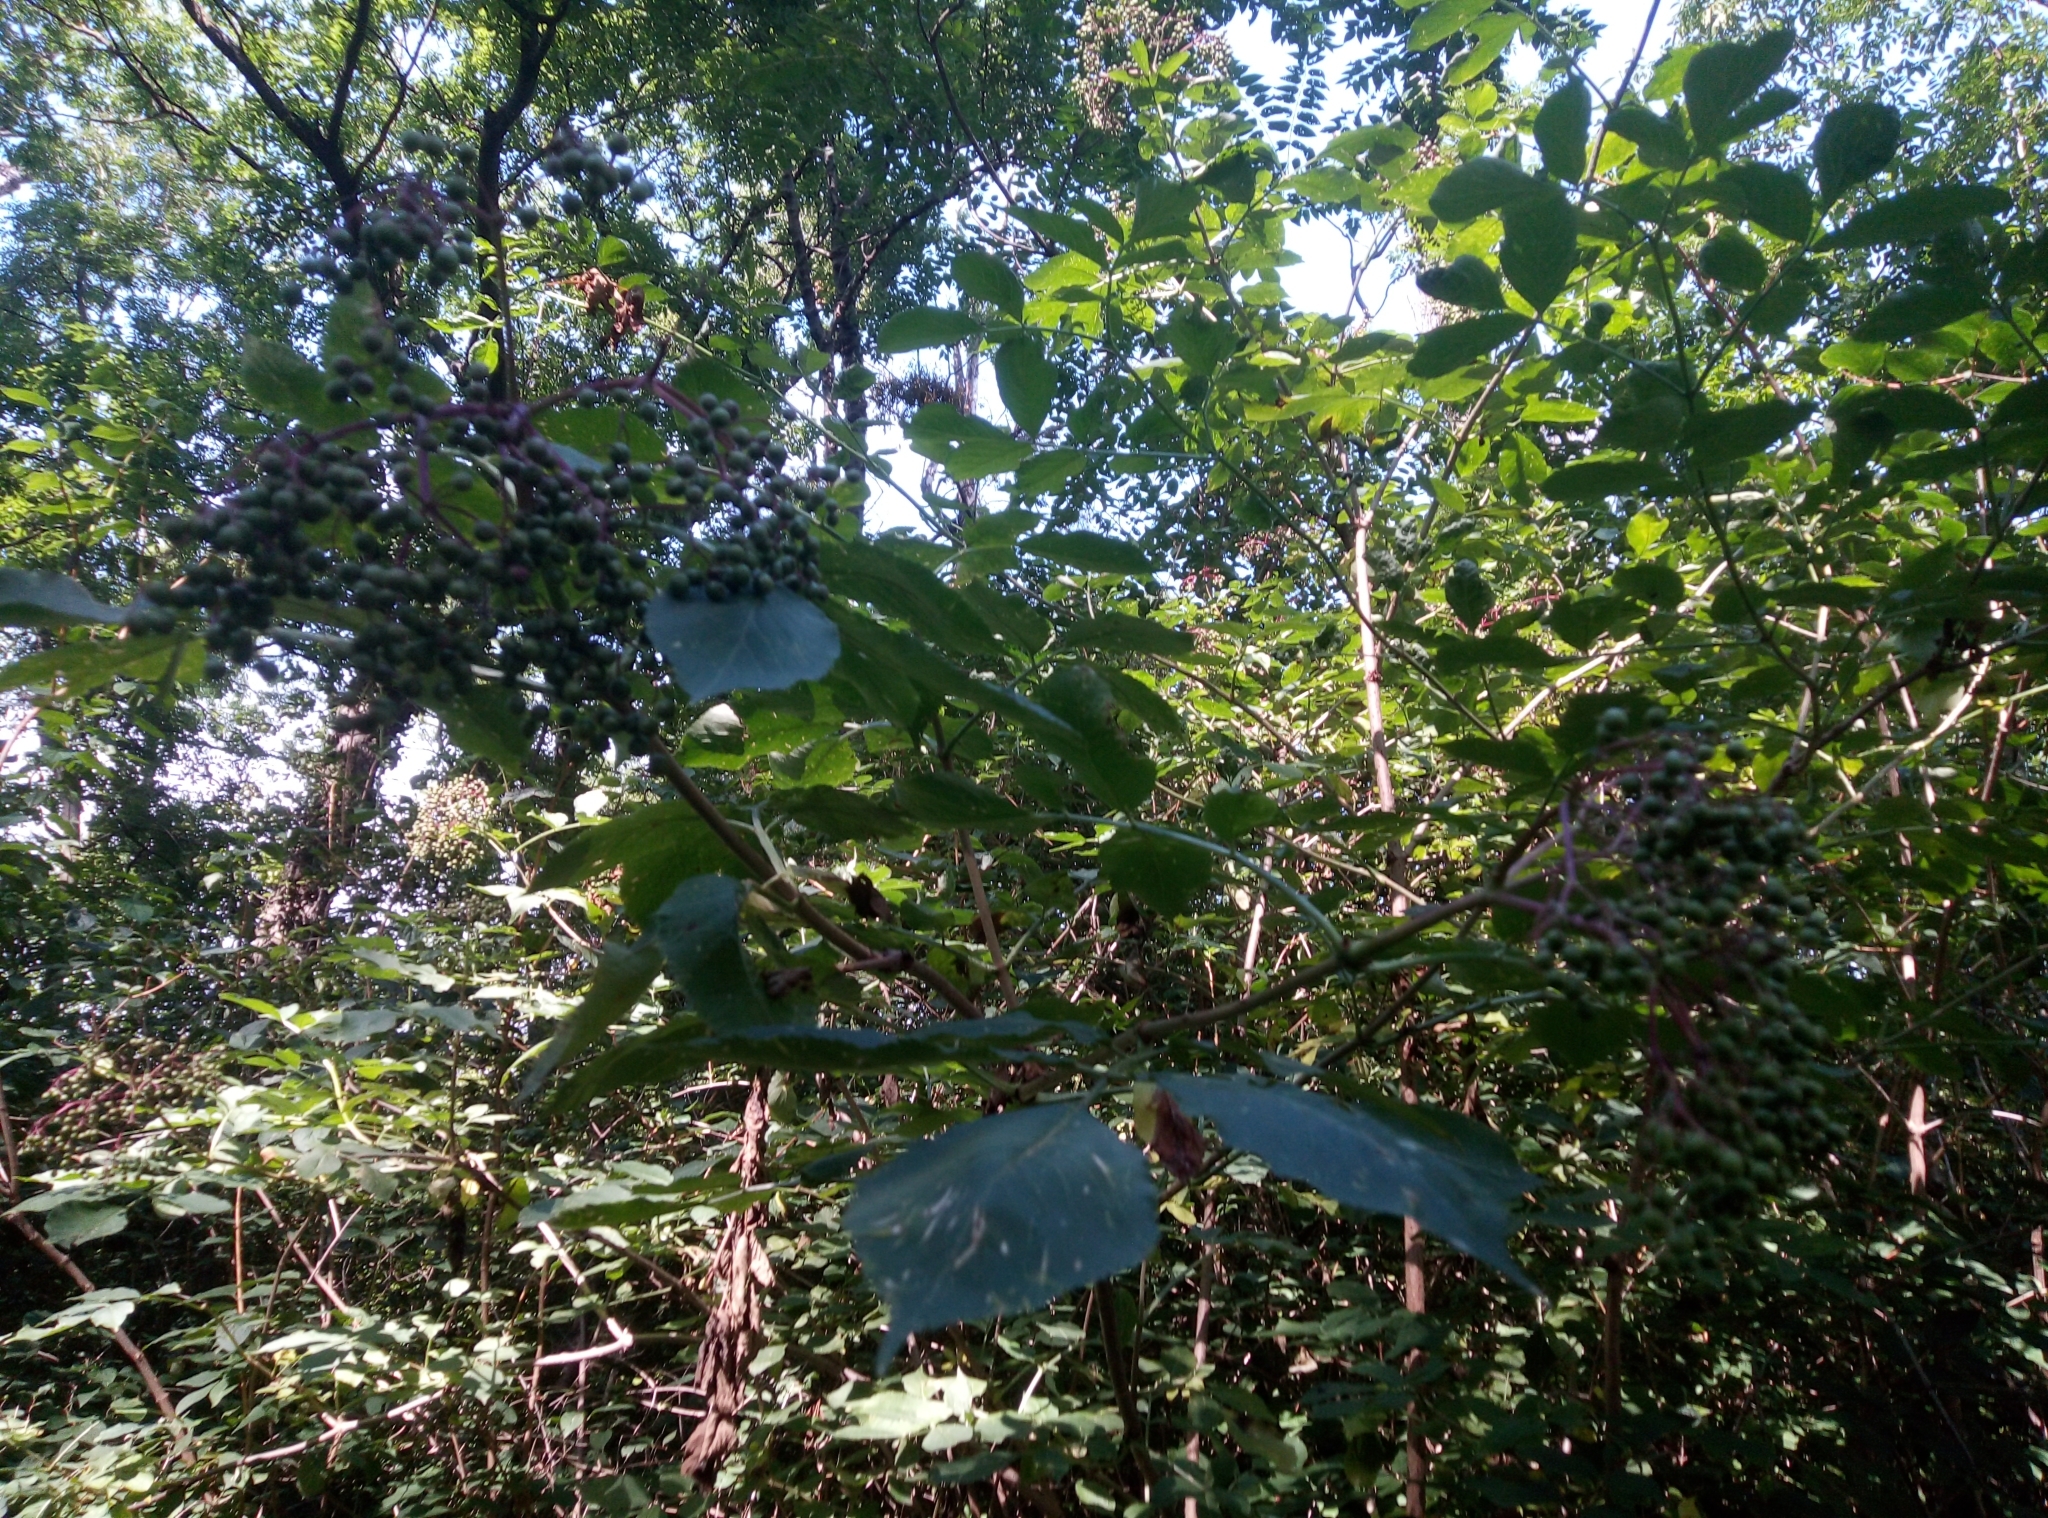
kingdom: Plantae
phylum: Tracheophyta
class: Magnoliopsida
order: Dipsacales
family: Viburnaceae
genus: Sambucus
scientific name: Sambucus nigra
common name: Elder
